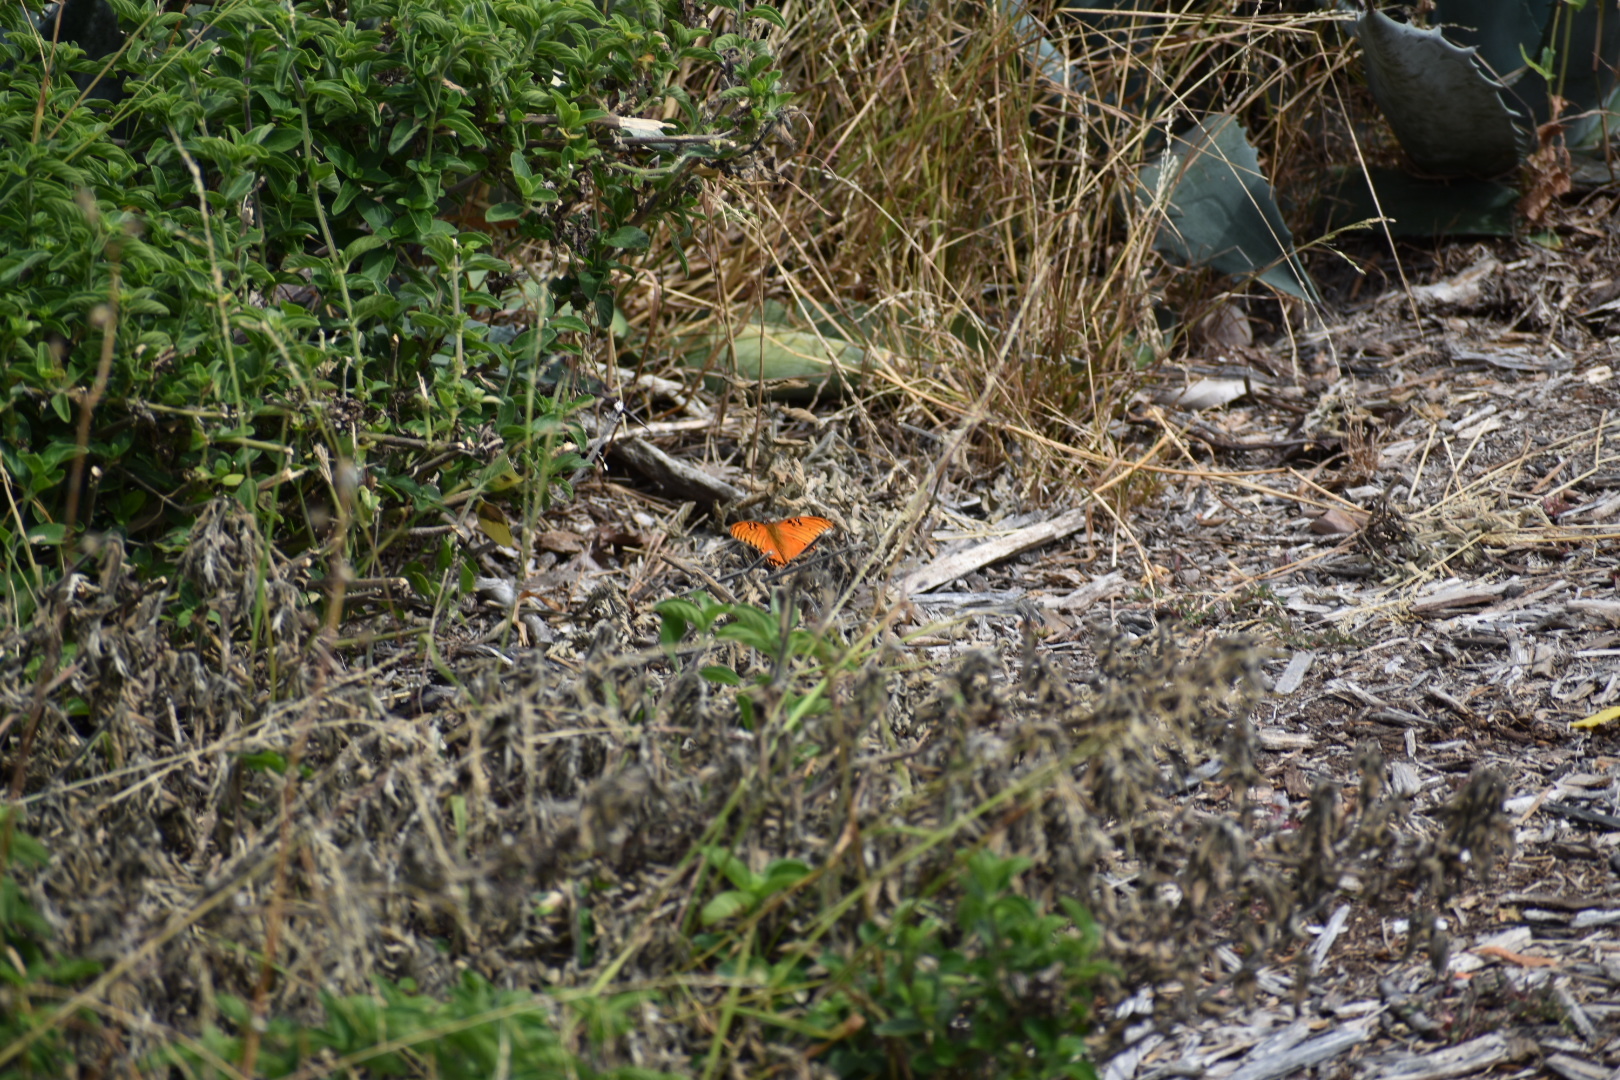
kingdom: Animalia
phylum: Arthropoda
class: Insecta
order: Lepidoptera
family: Nymphalidae
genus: Dione
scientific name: Dione vanillae
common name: Gulf fritillary
